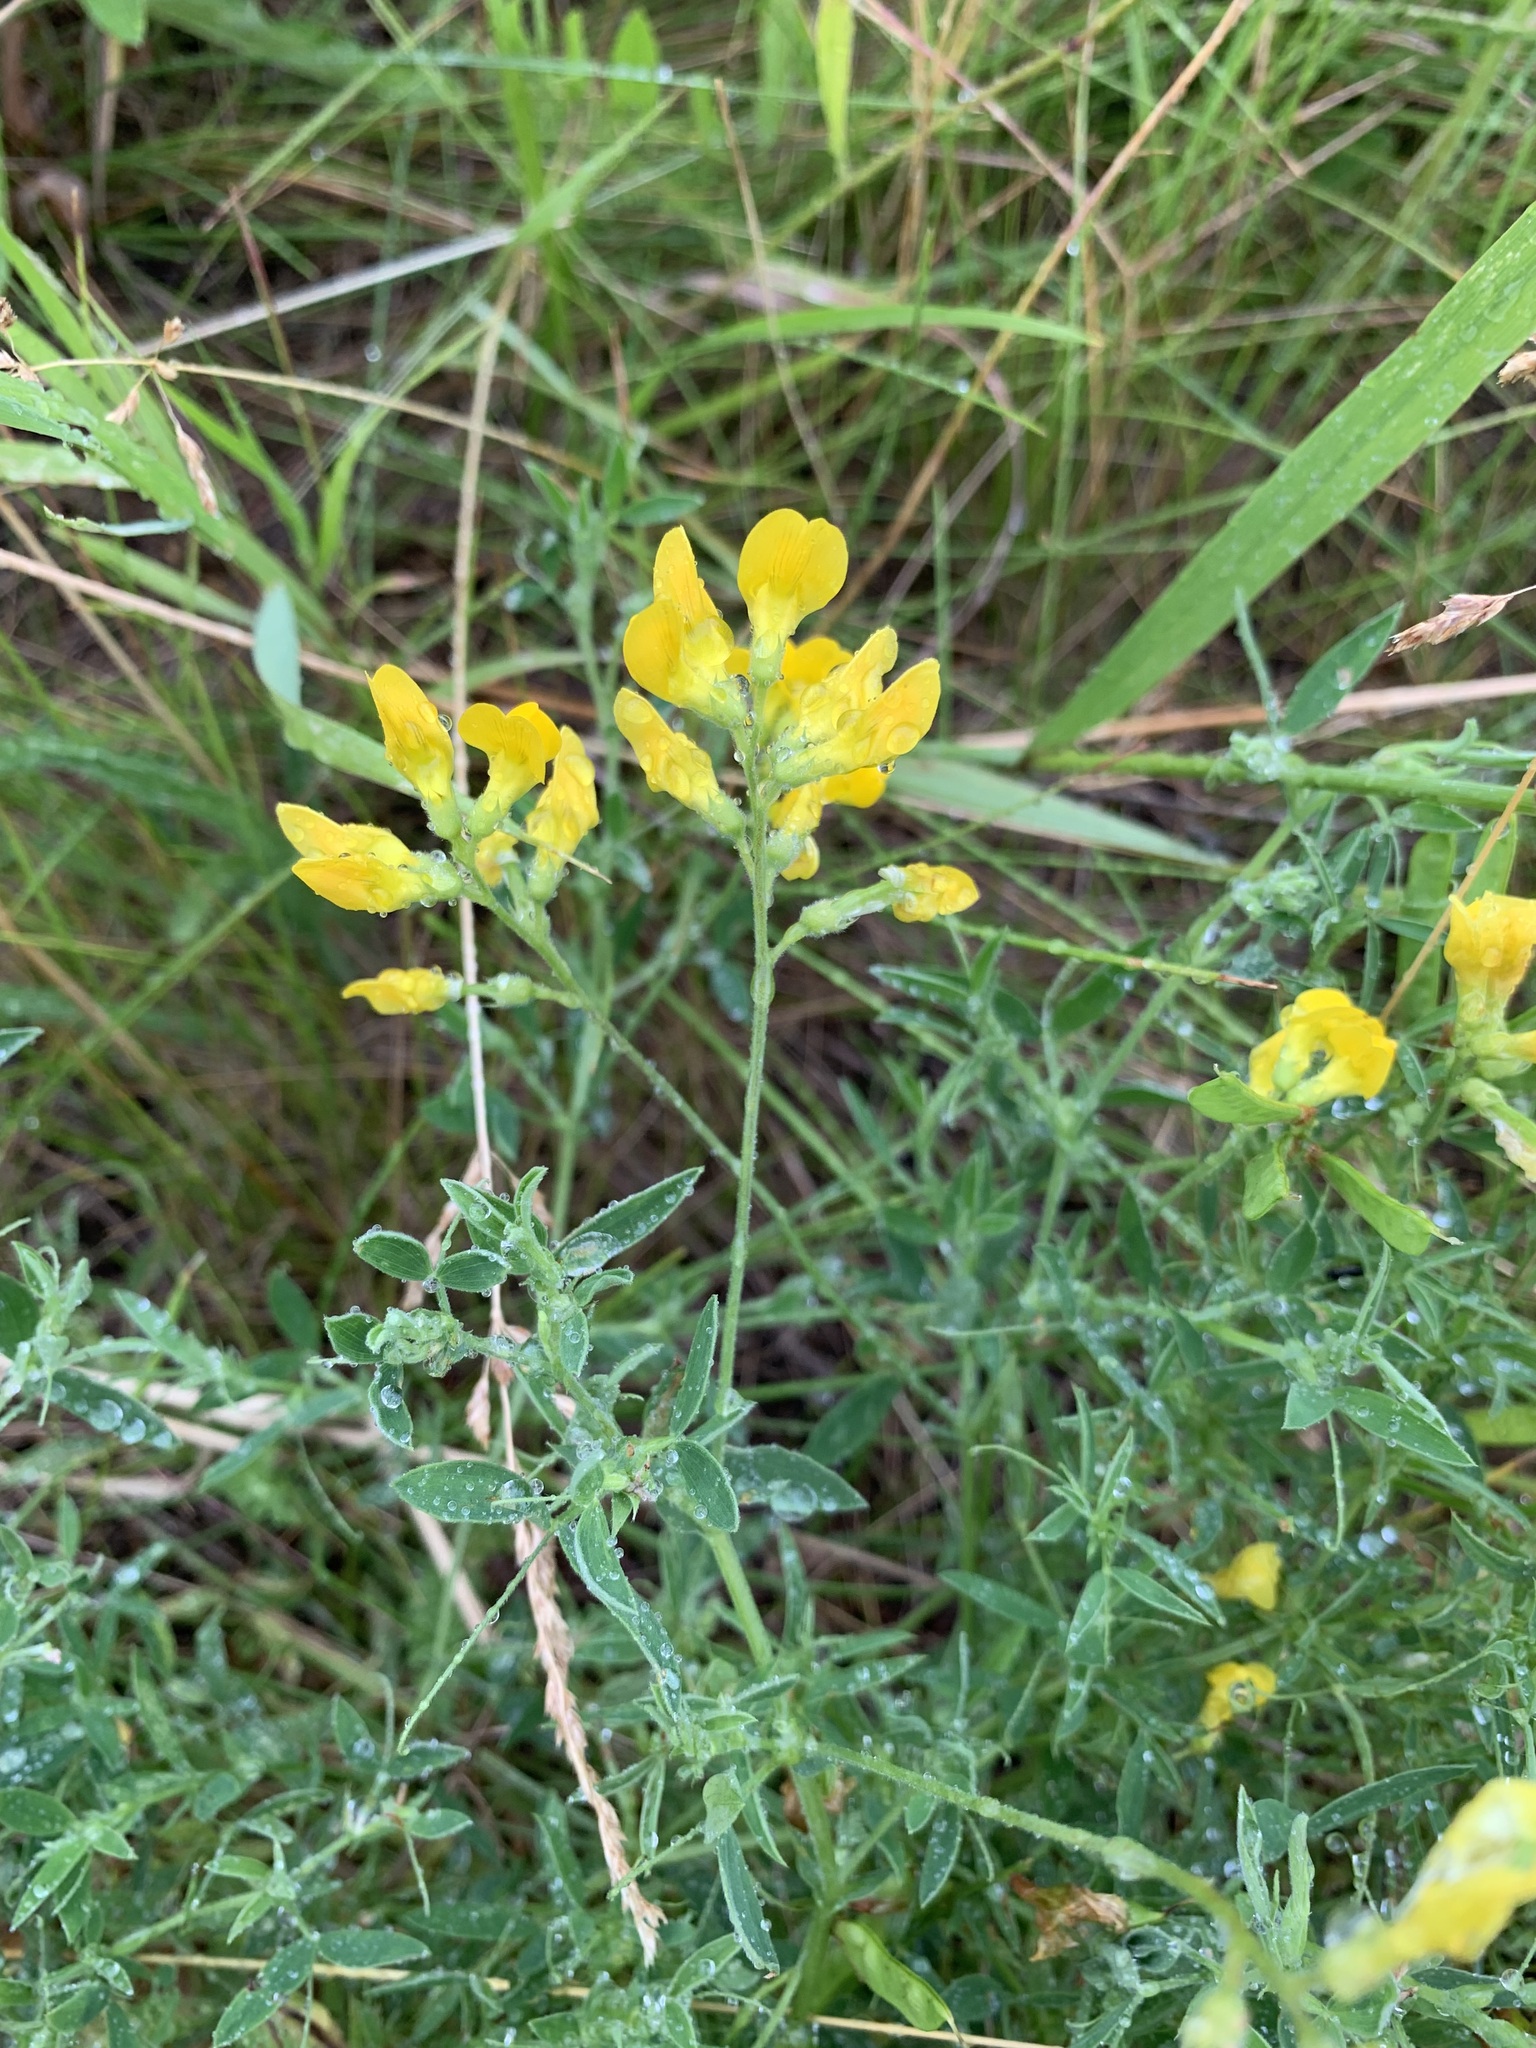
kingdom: Plantae
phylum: Tracheophyta
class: Magnoliopsida
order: Fabales
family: Fabaceae
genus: Lathyrus
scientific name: Lathyrus pratensis
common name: Meadow vetchling
